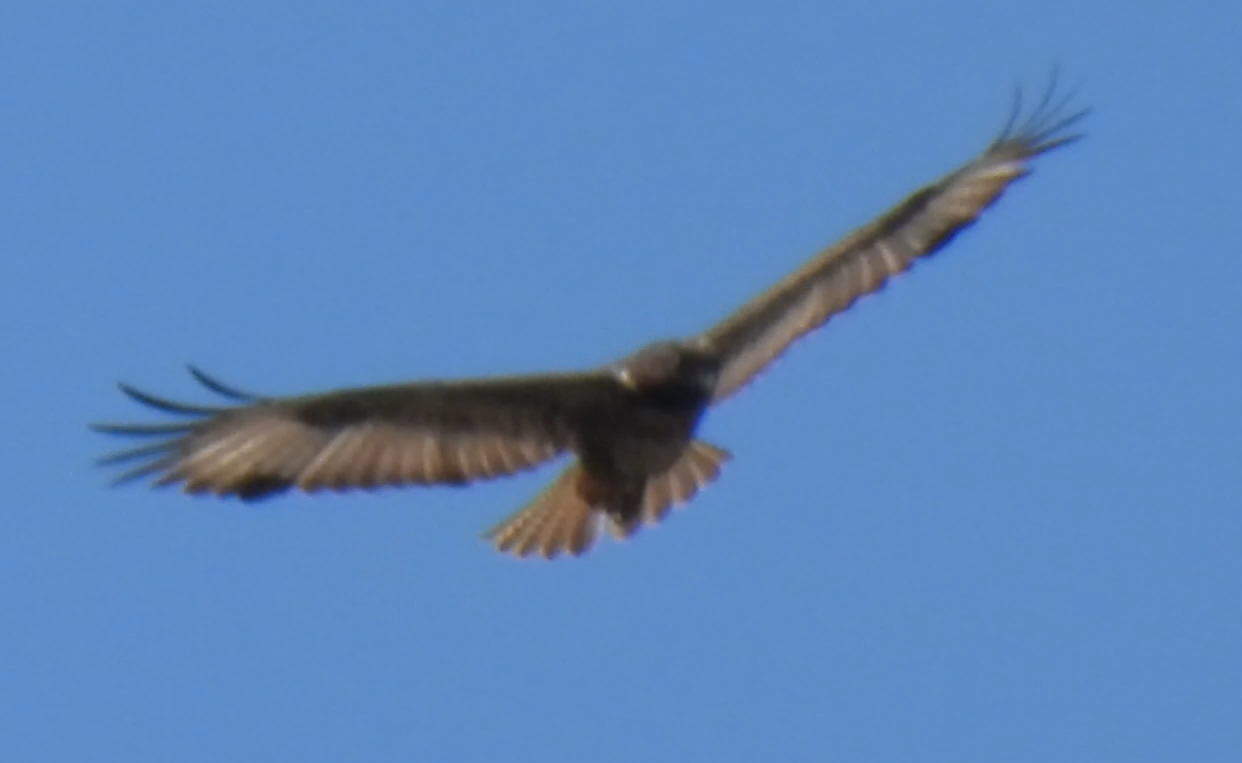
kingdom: Animalia
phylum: Chordata
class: Aves
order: Accipitriformes
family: Accipitridae
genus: Buteo
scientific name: Buteo rufofuscus
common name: Jackal buzzard
